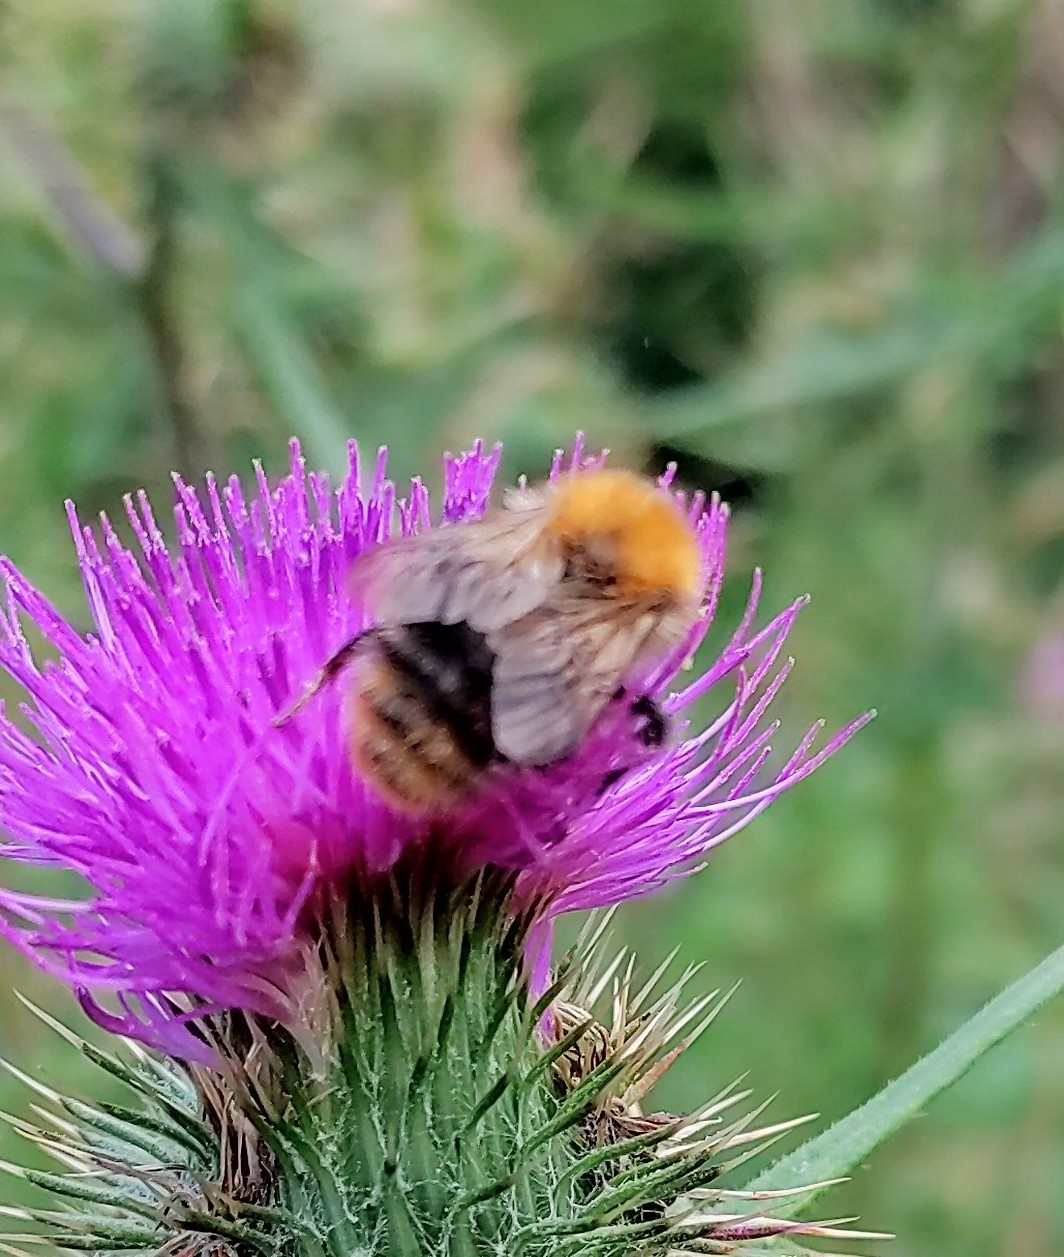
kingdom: Animalia
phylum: Arthropoda
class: Insecta
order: Hymenoptera
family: Apidae
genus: Bombus
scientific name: Bombus pascuorum
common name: Common carder bee
